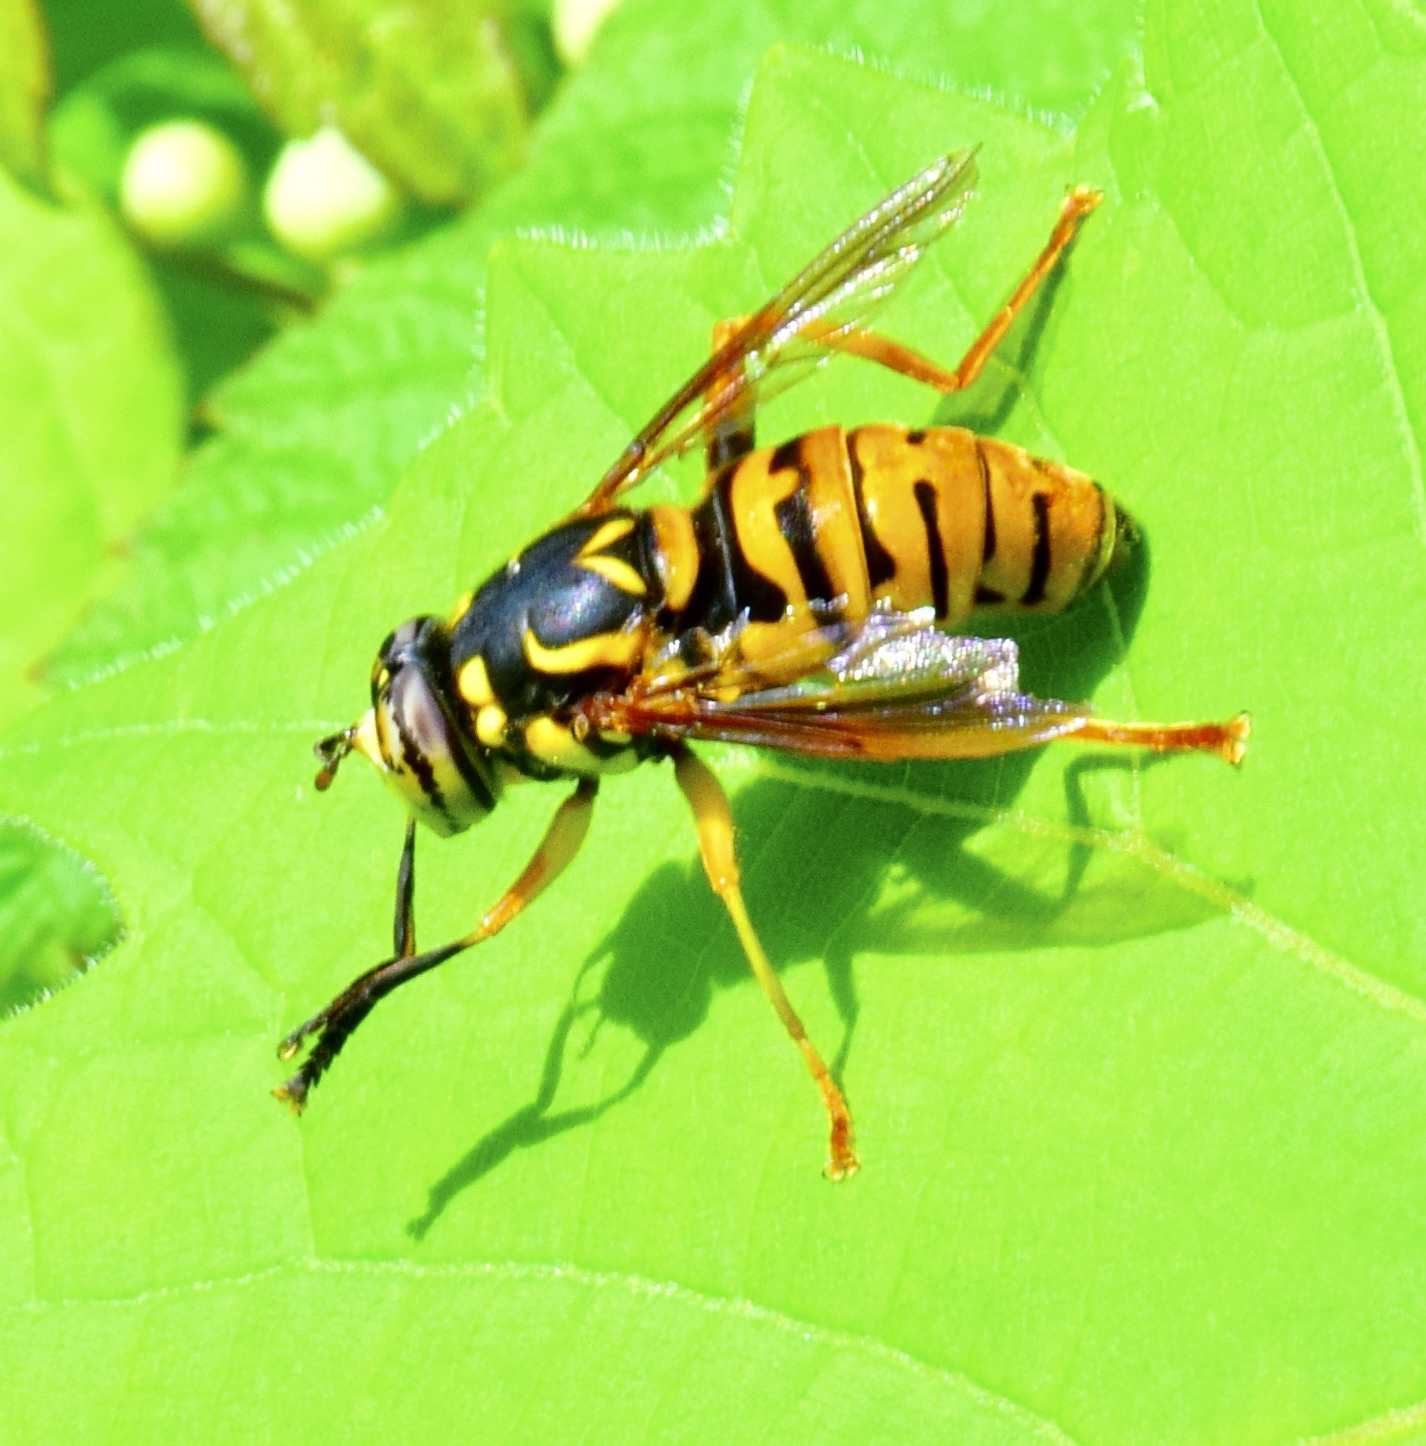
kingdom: Animalia
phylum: Arthropoda
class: Insecta
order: Diptera
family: Syrphidae
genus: Spilomyia
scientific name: Spilomyia alcimus
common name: Broad-banded hornet fly
